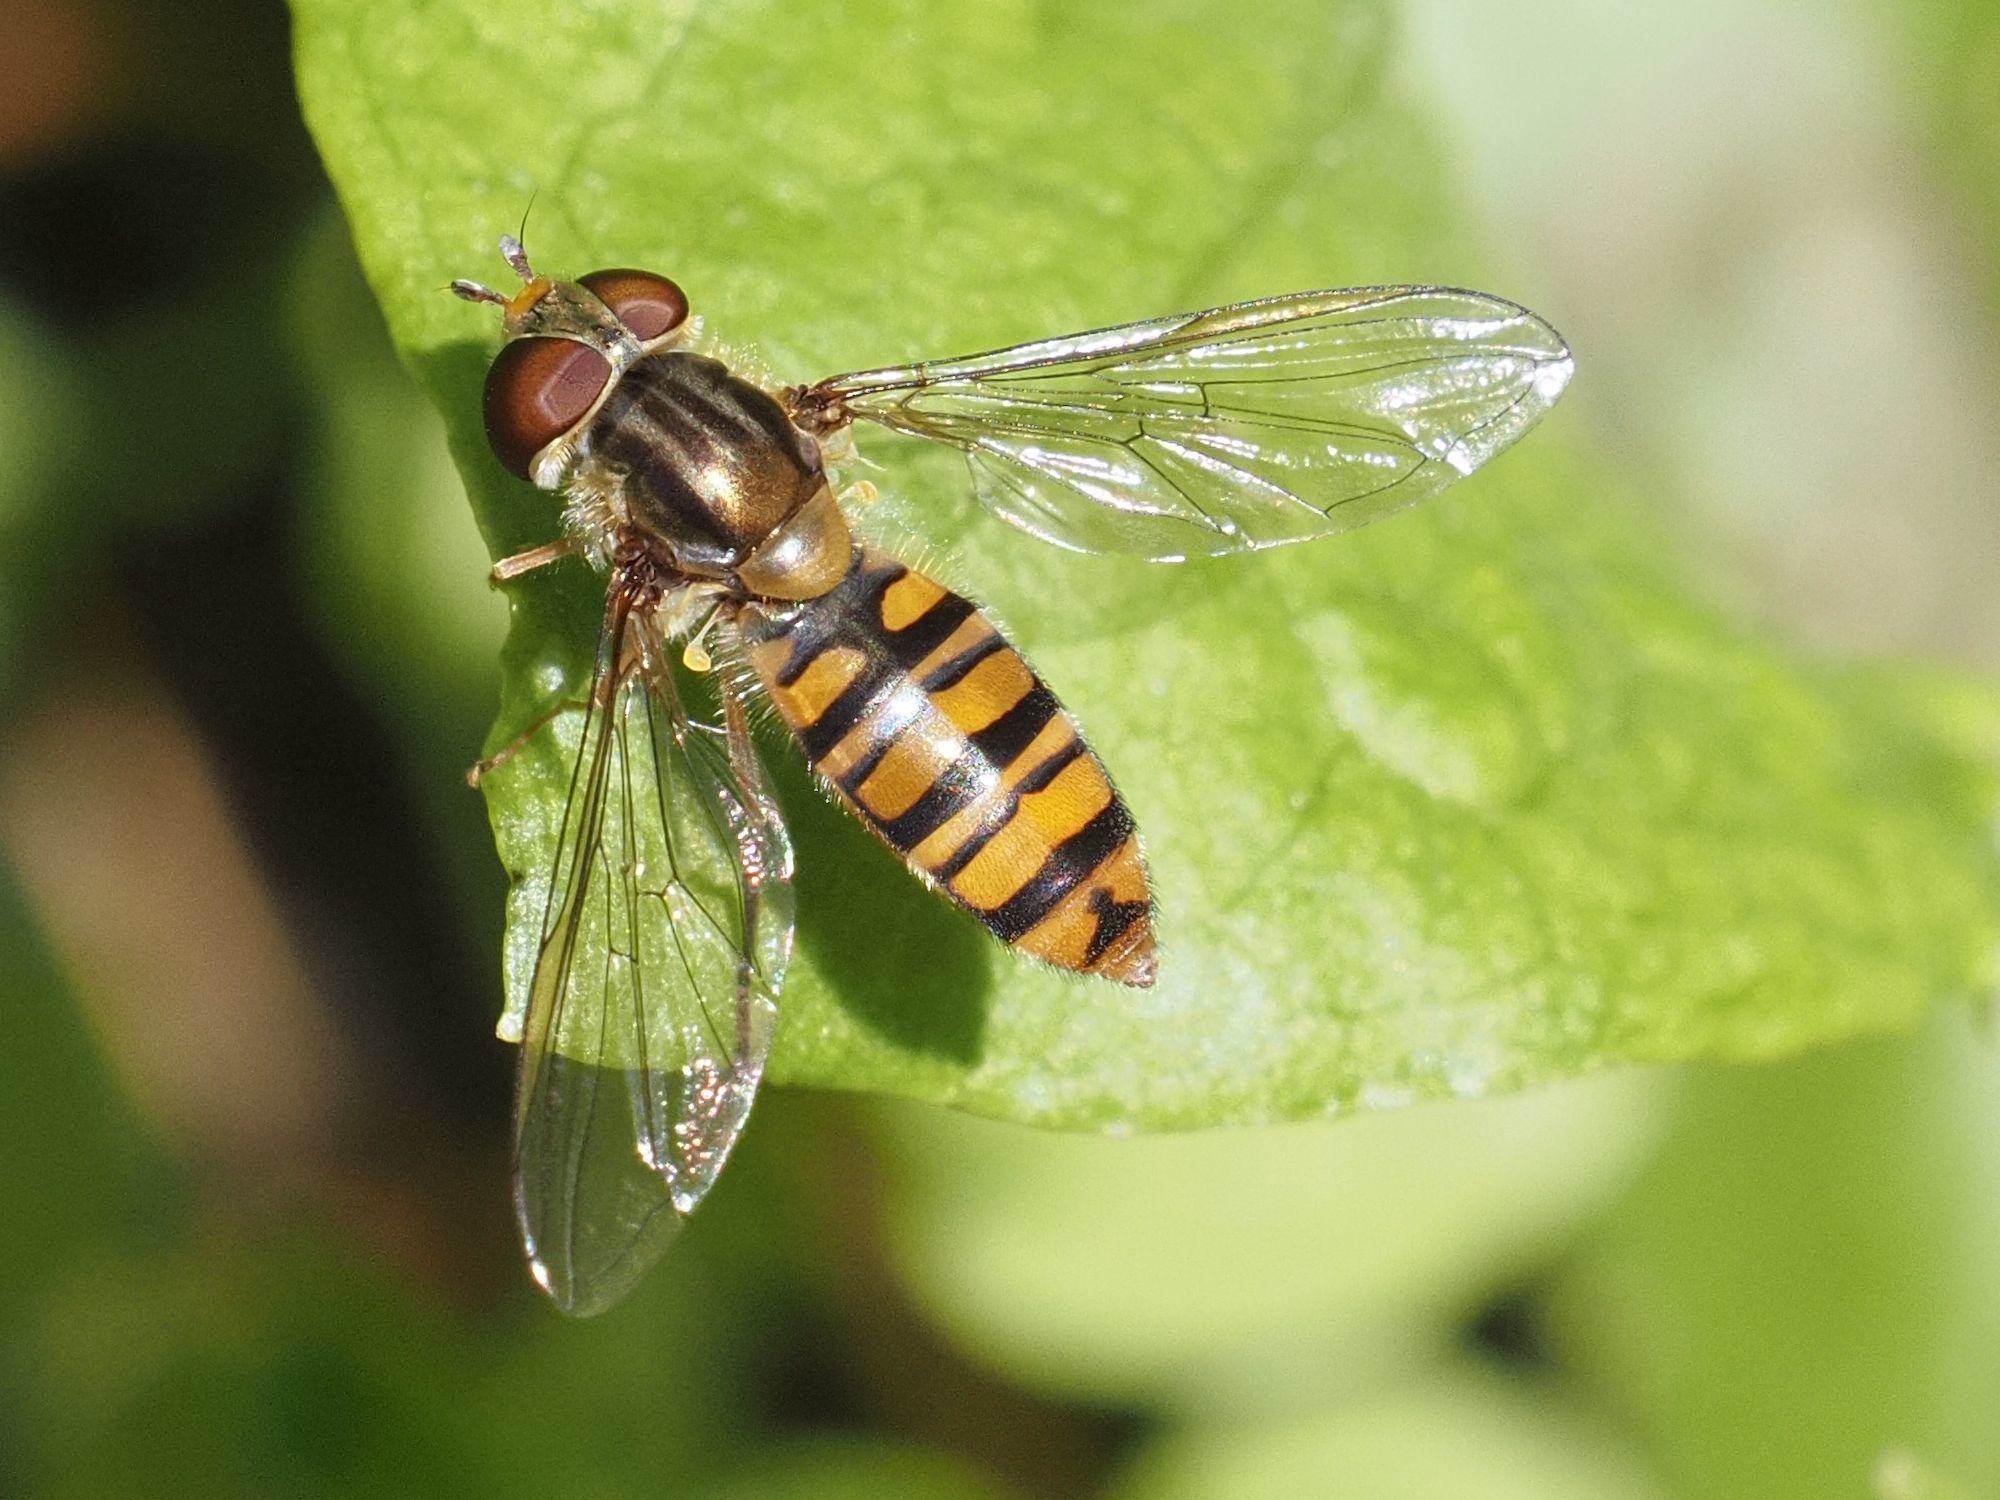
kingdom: Animalia
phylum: Arthropoda
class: Insecta
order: Diptera
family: Syrphidae
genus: Episyrphus
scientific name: Episyrphus balteatus
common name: Marmalade hoverfly
